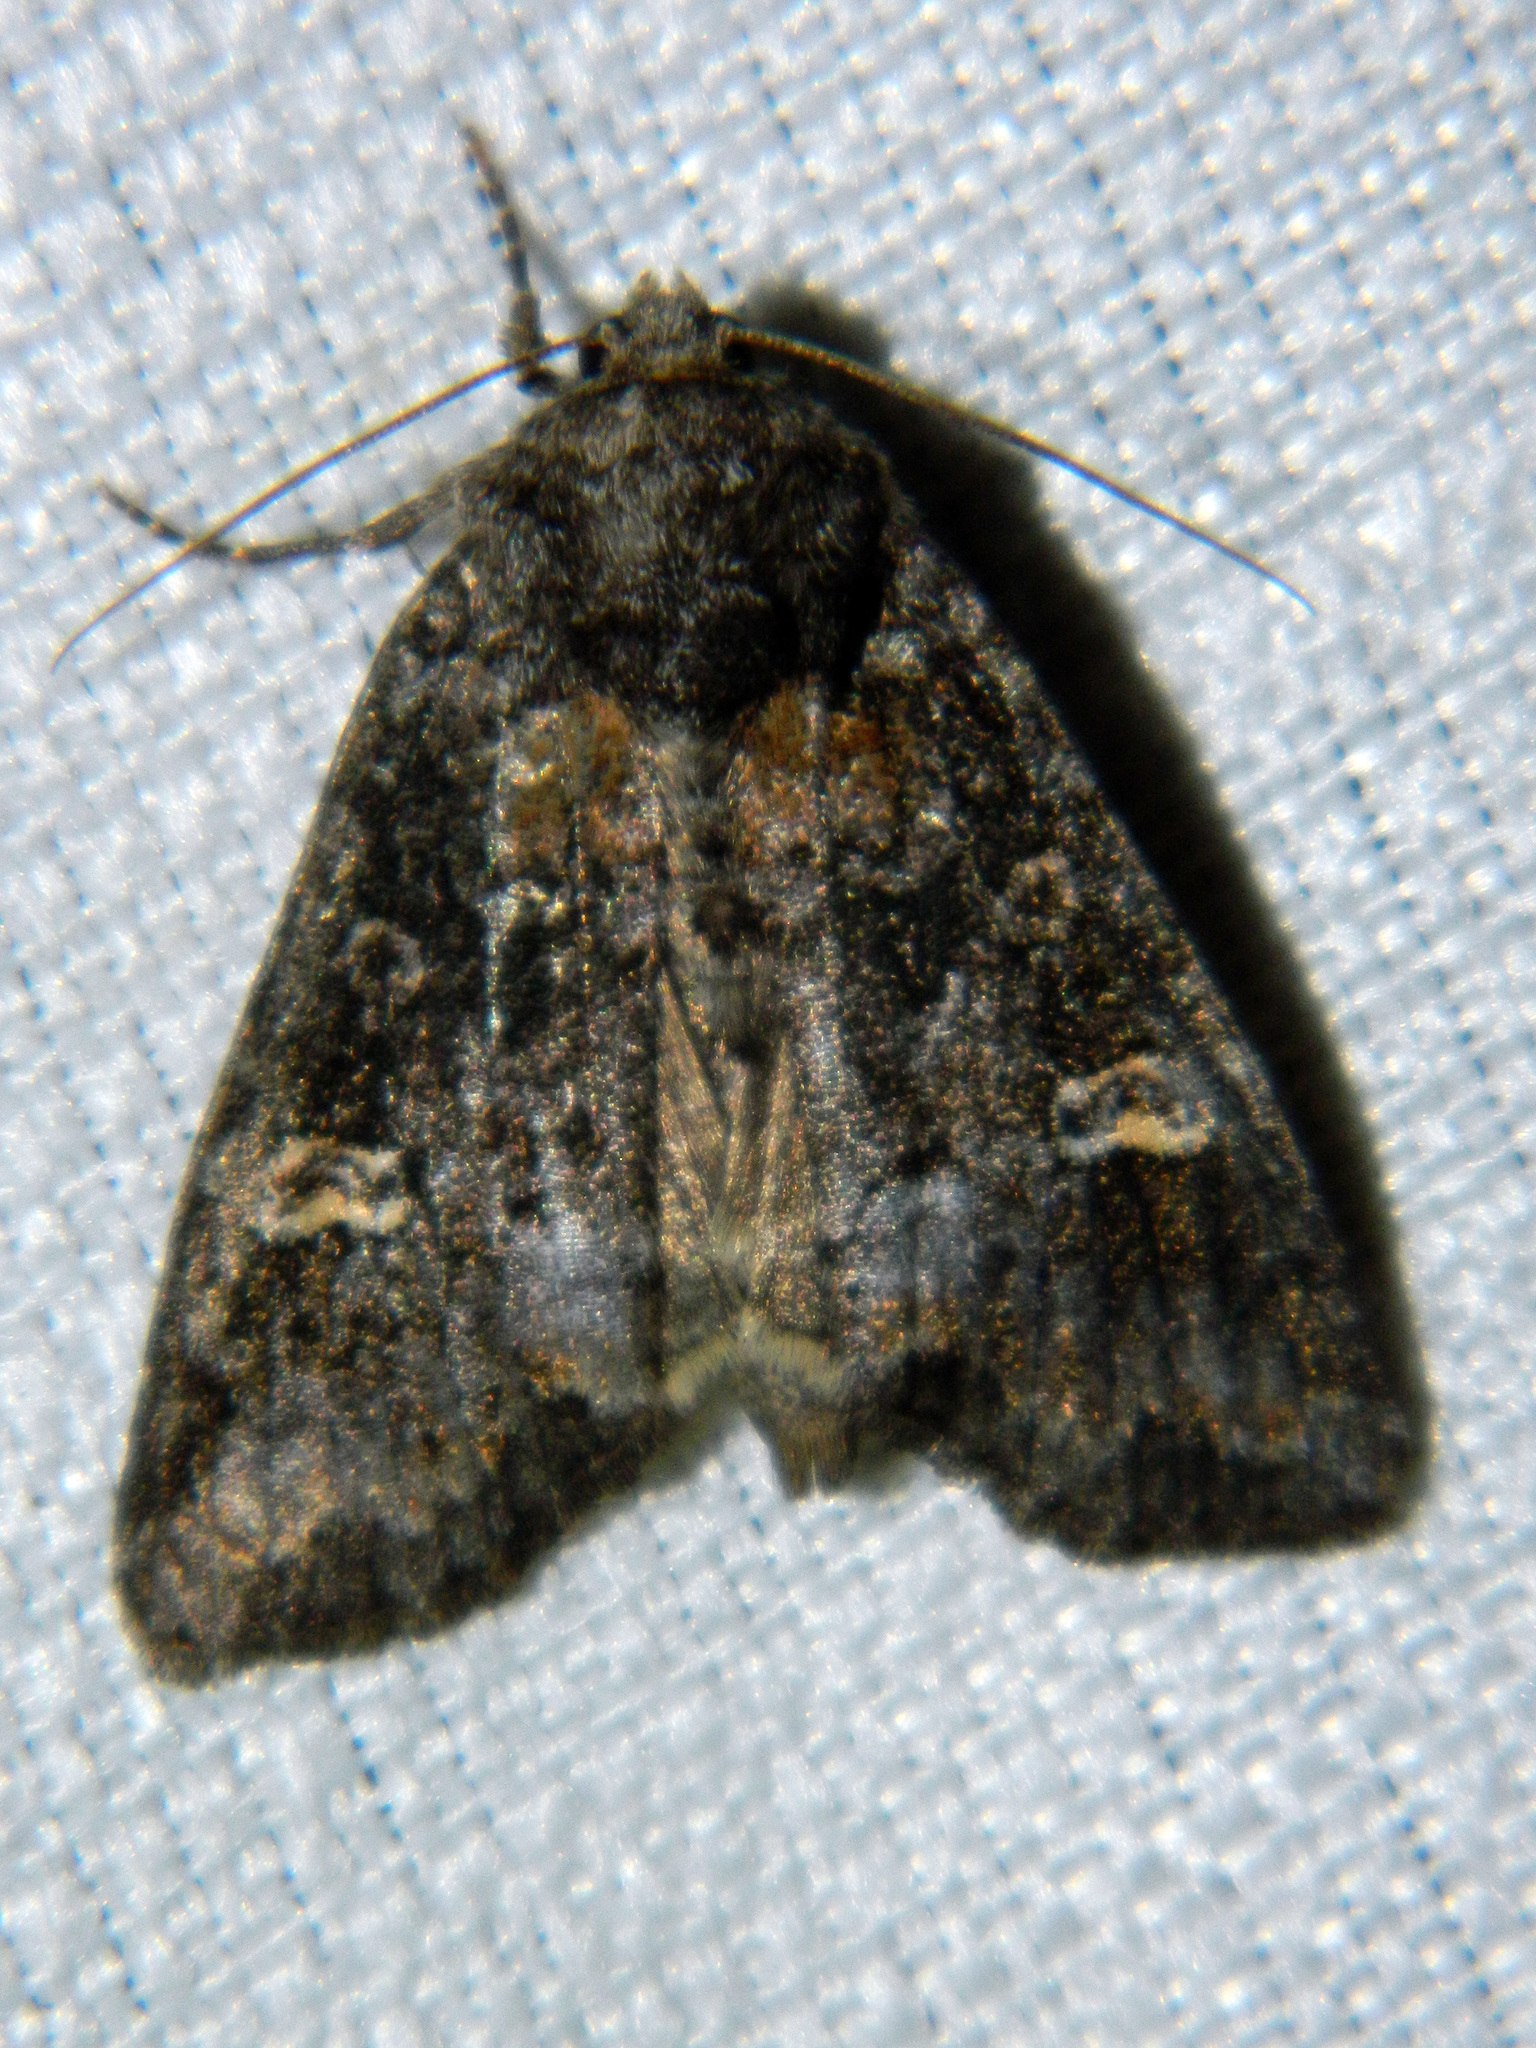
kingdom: Animalia
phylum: Arthropoda
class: Insecta
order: Lepidoptera
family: Noctuidae
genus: Spiramater
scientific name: Spiramater lutra
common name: Otter spiramater moth
